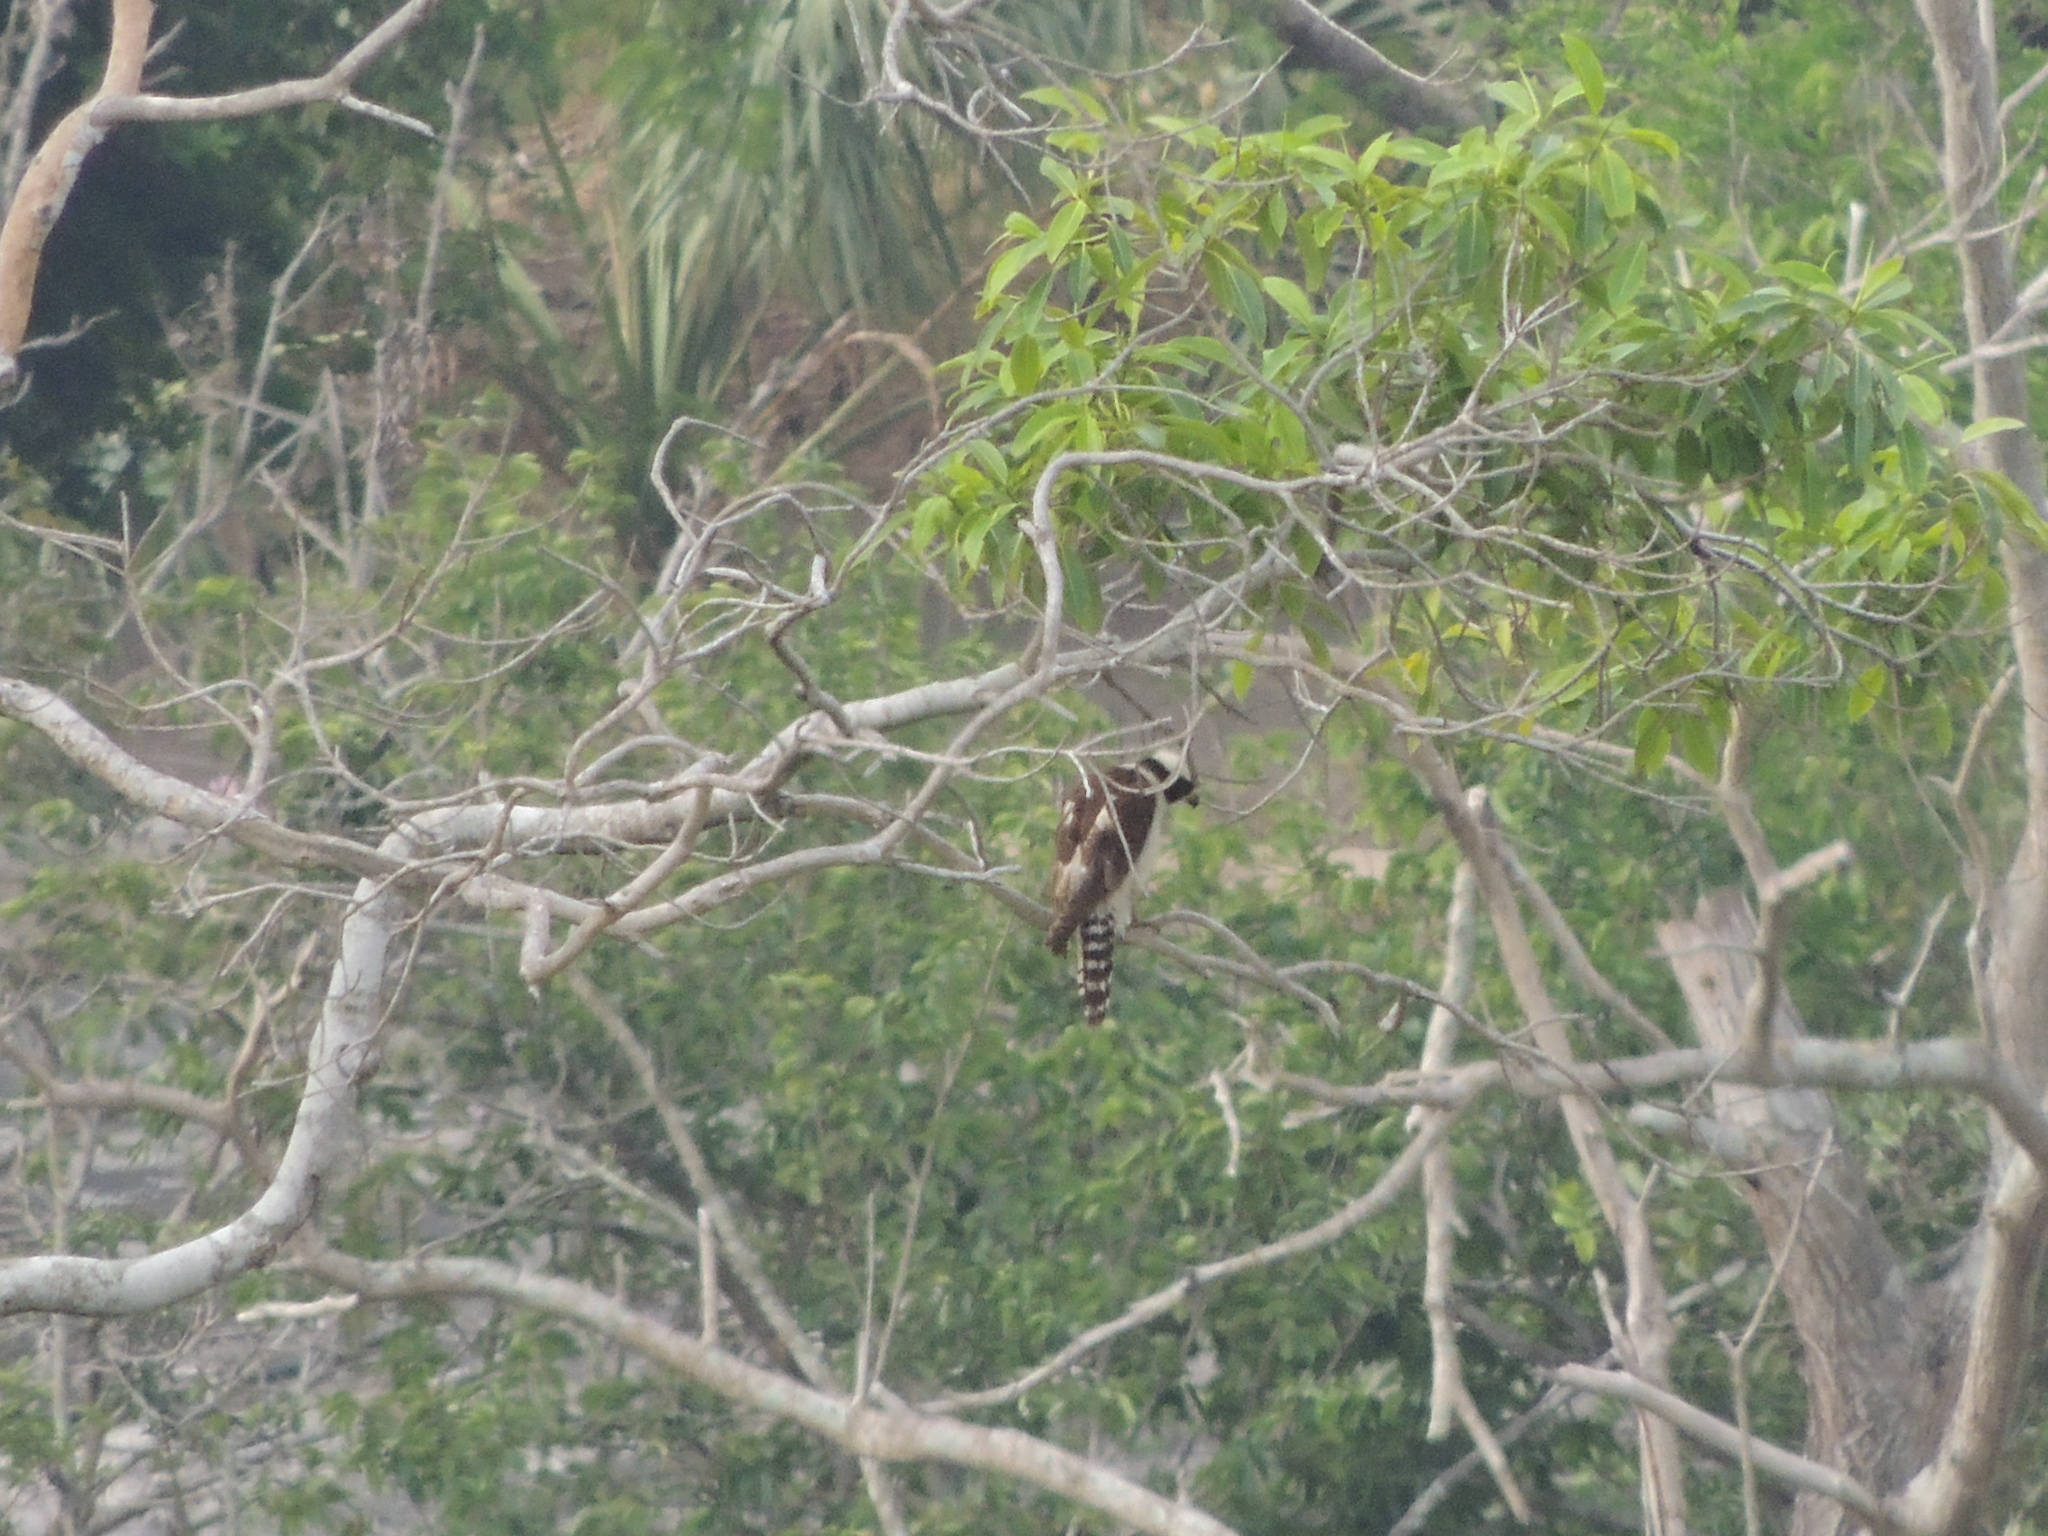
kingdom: Animalia
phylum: Chordata
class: Aves
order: Falconiformes
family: Falconidae
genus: Herpetotheres
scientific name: Herpetotheres cachinnans
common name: Laughing falcon
